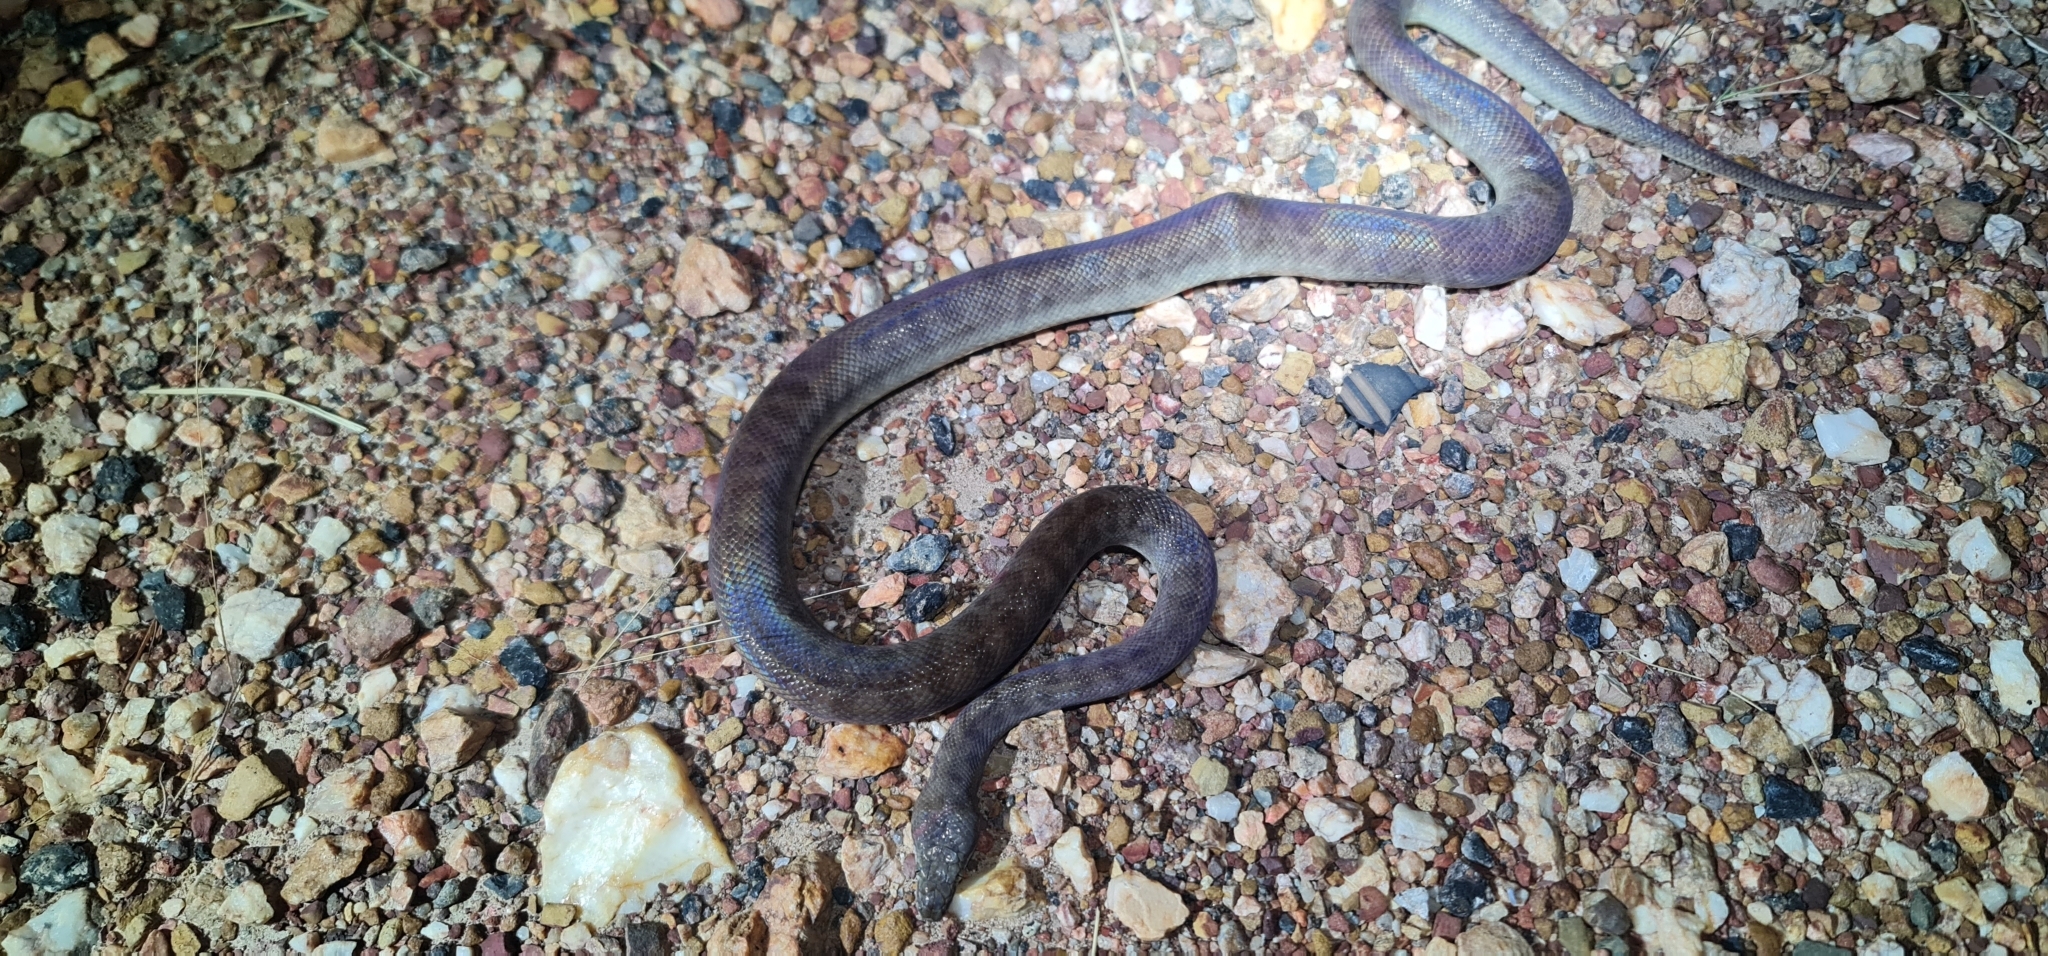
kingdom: Animalia
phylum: Chordata
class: Squamata
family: Pythonidae
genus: Antaresia
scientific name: Antaresia childreni
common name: Children's python
